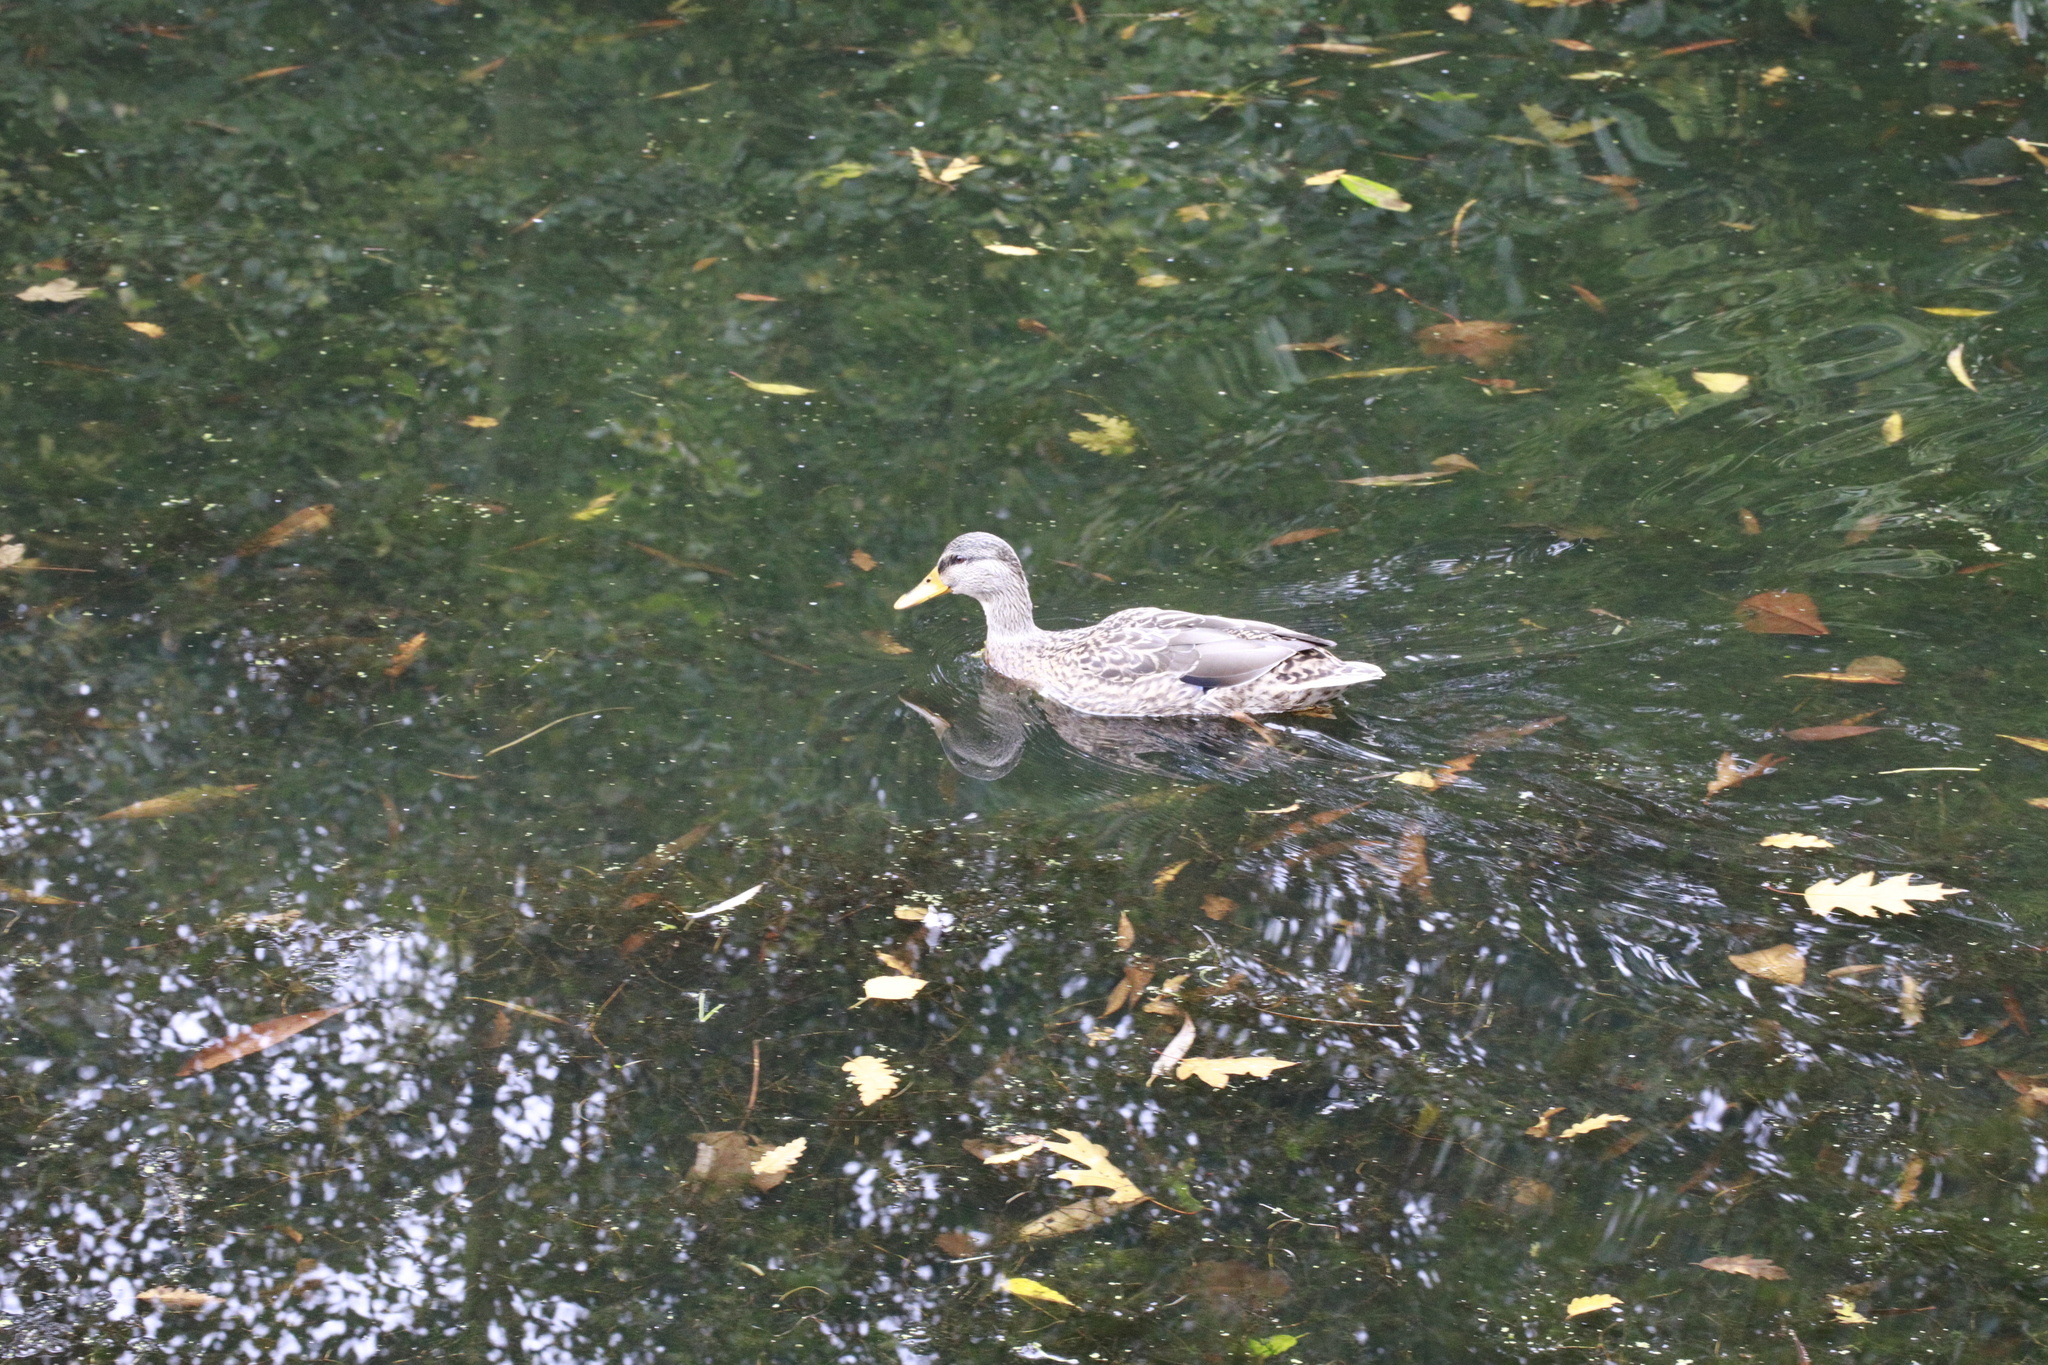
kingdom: Animalia
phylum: Chordata
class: Aves
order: Anseriformes
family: Anatidae
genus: Anas
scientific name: Anas platyrhynchos
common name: Mallard
